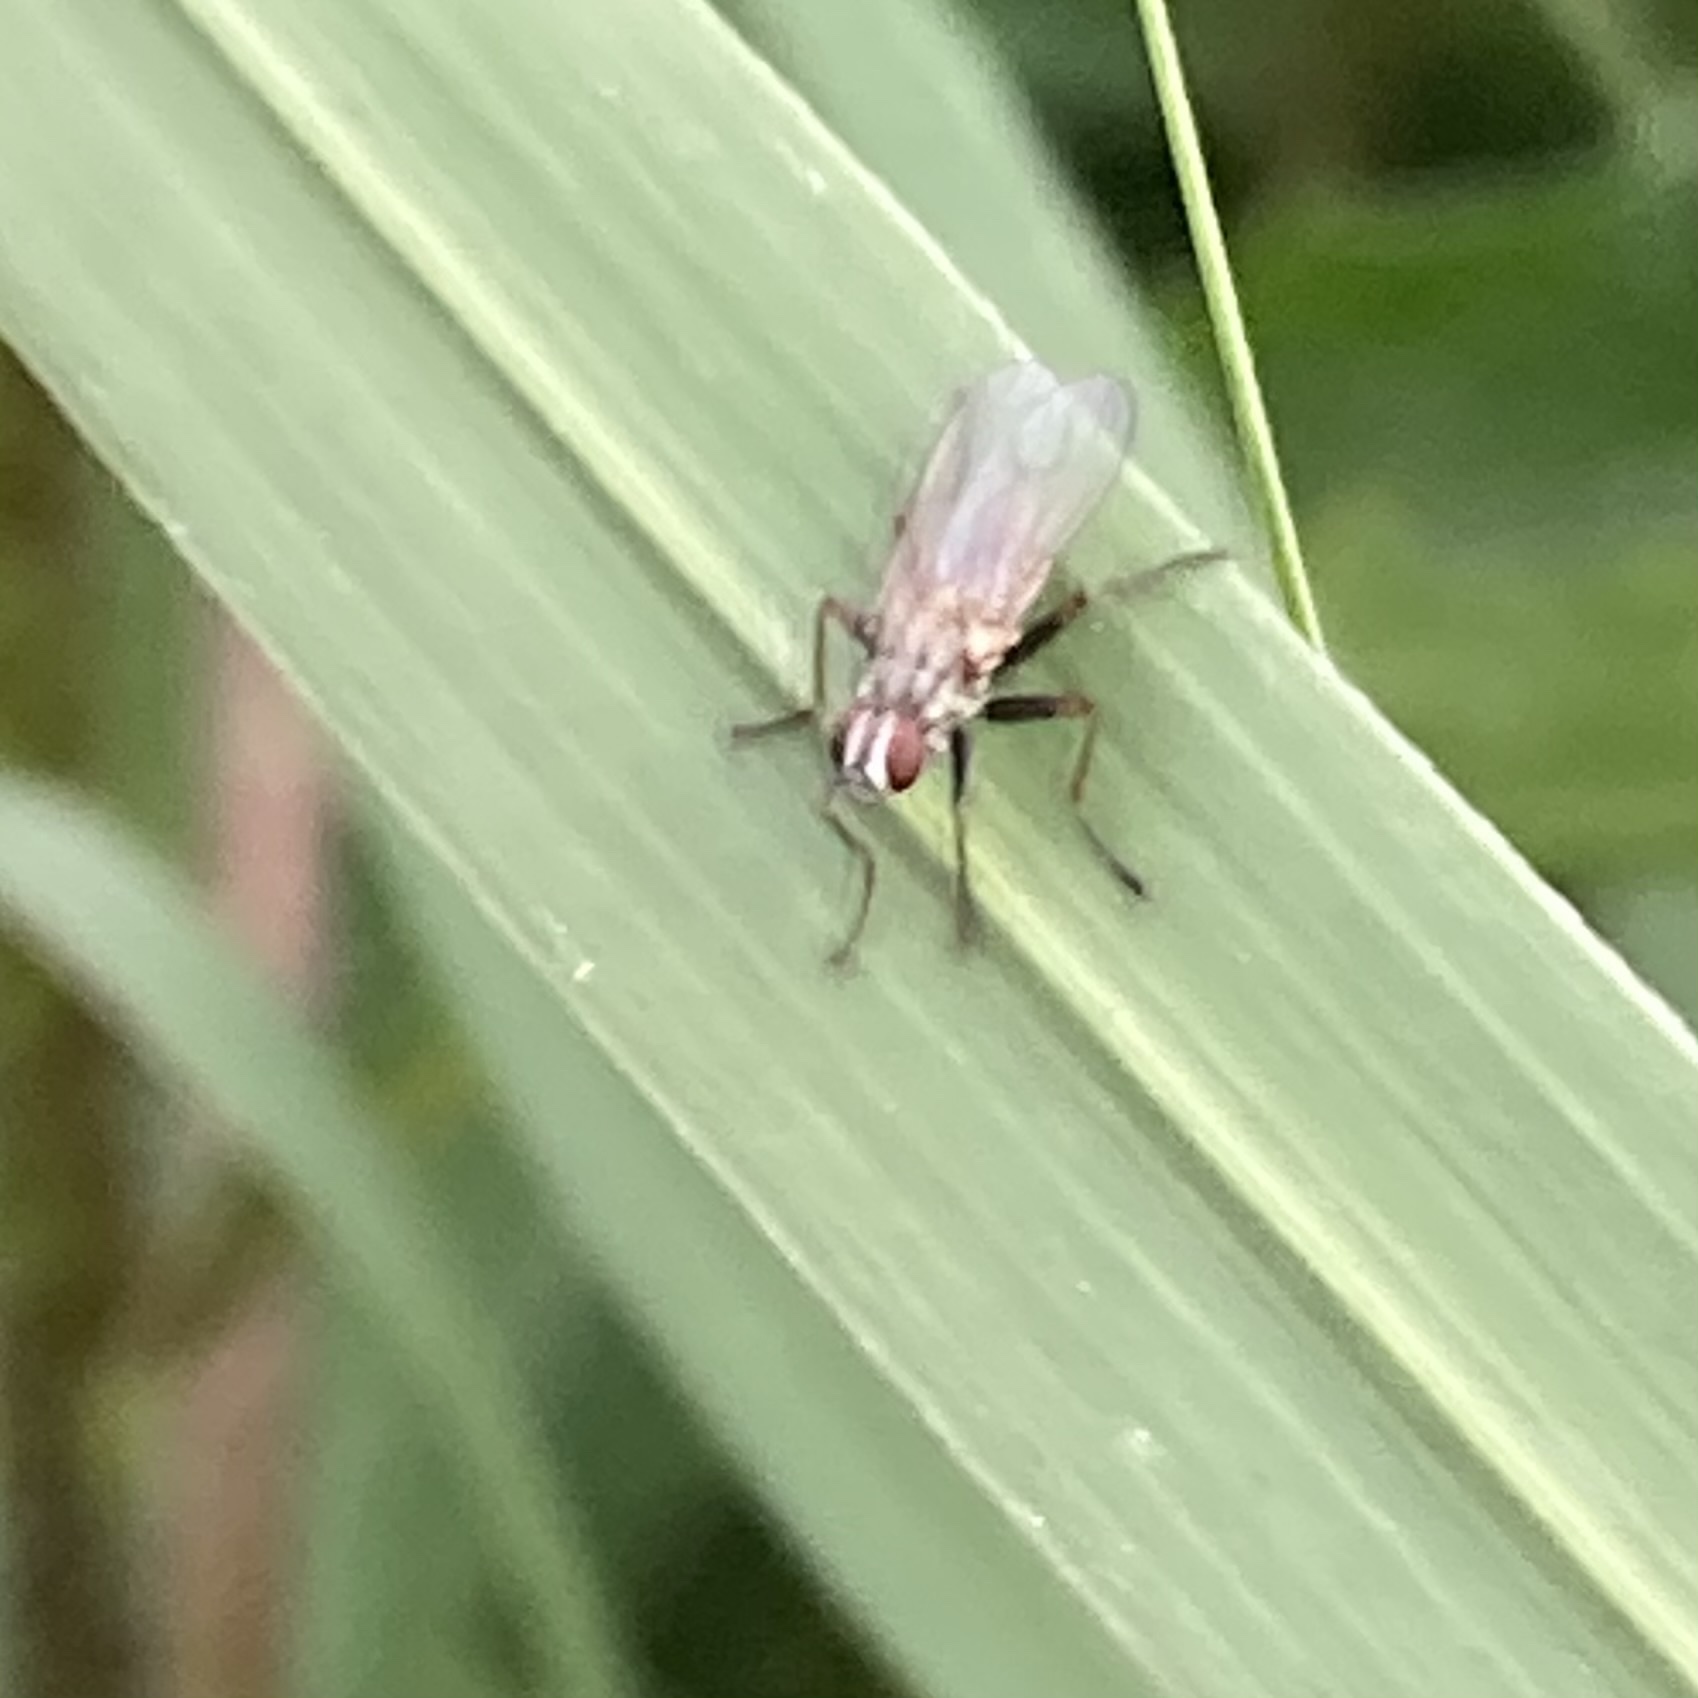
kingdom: Animalia
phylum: Arthropoda
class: Insecta
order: Diptera
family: Muscidae
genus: Coenosia
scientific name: Coenosia tigrina
